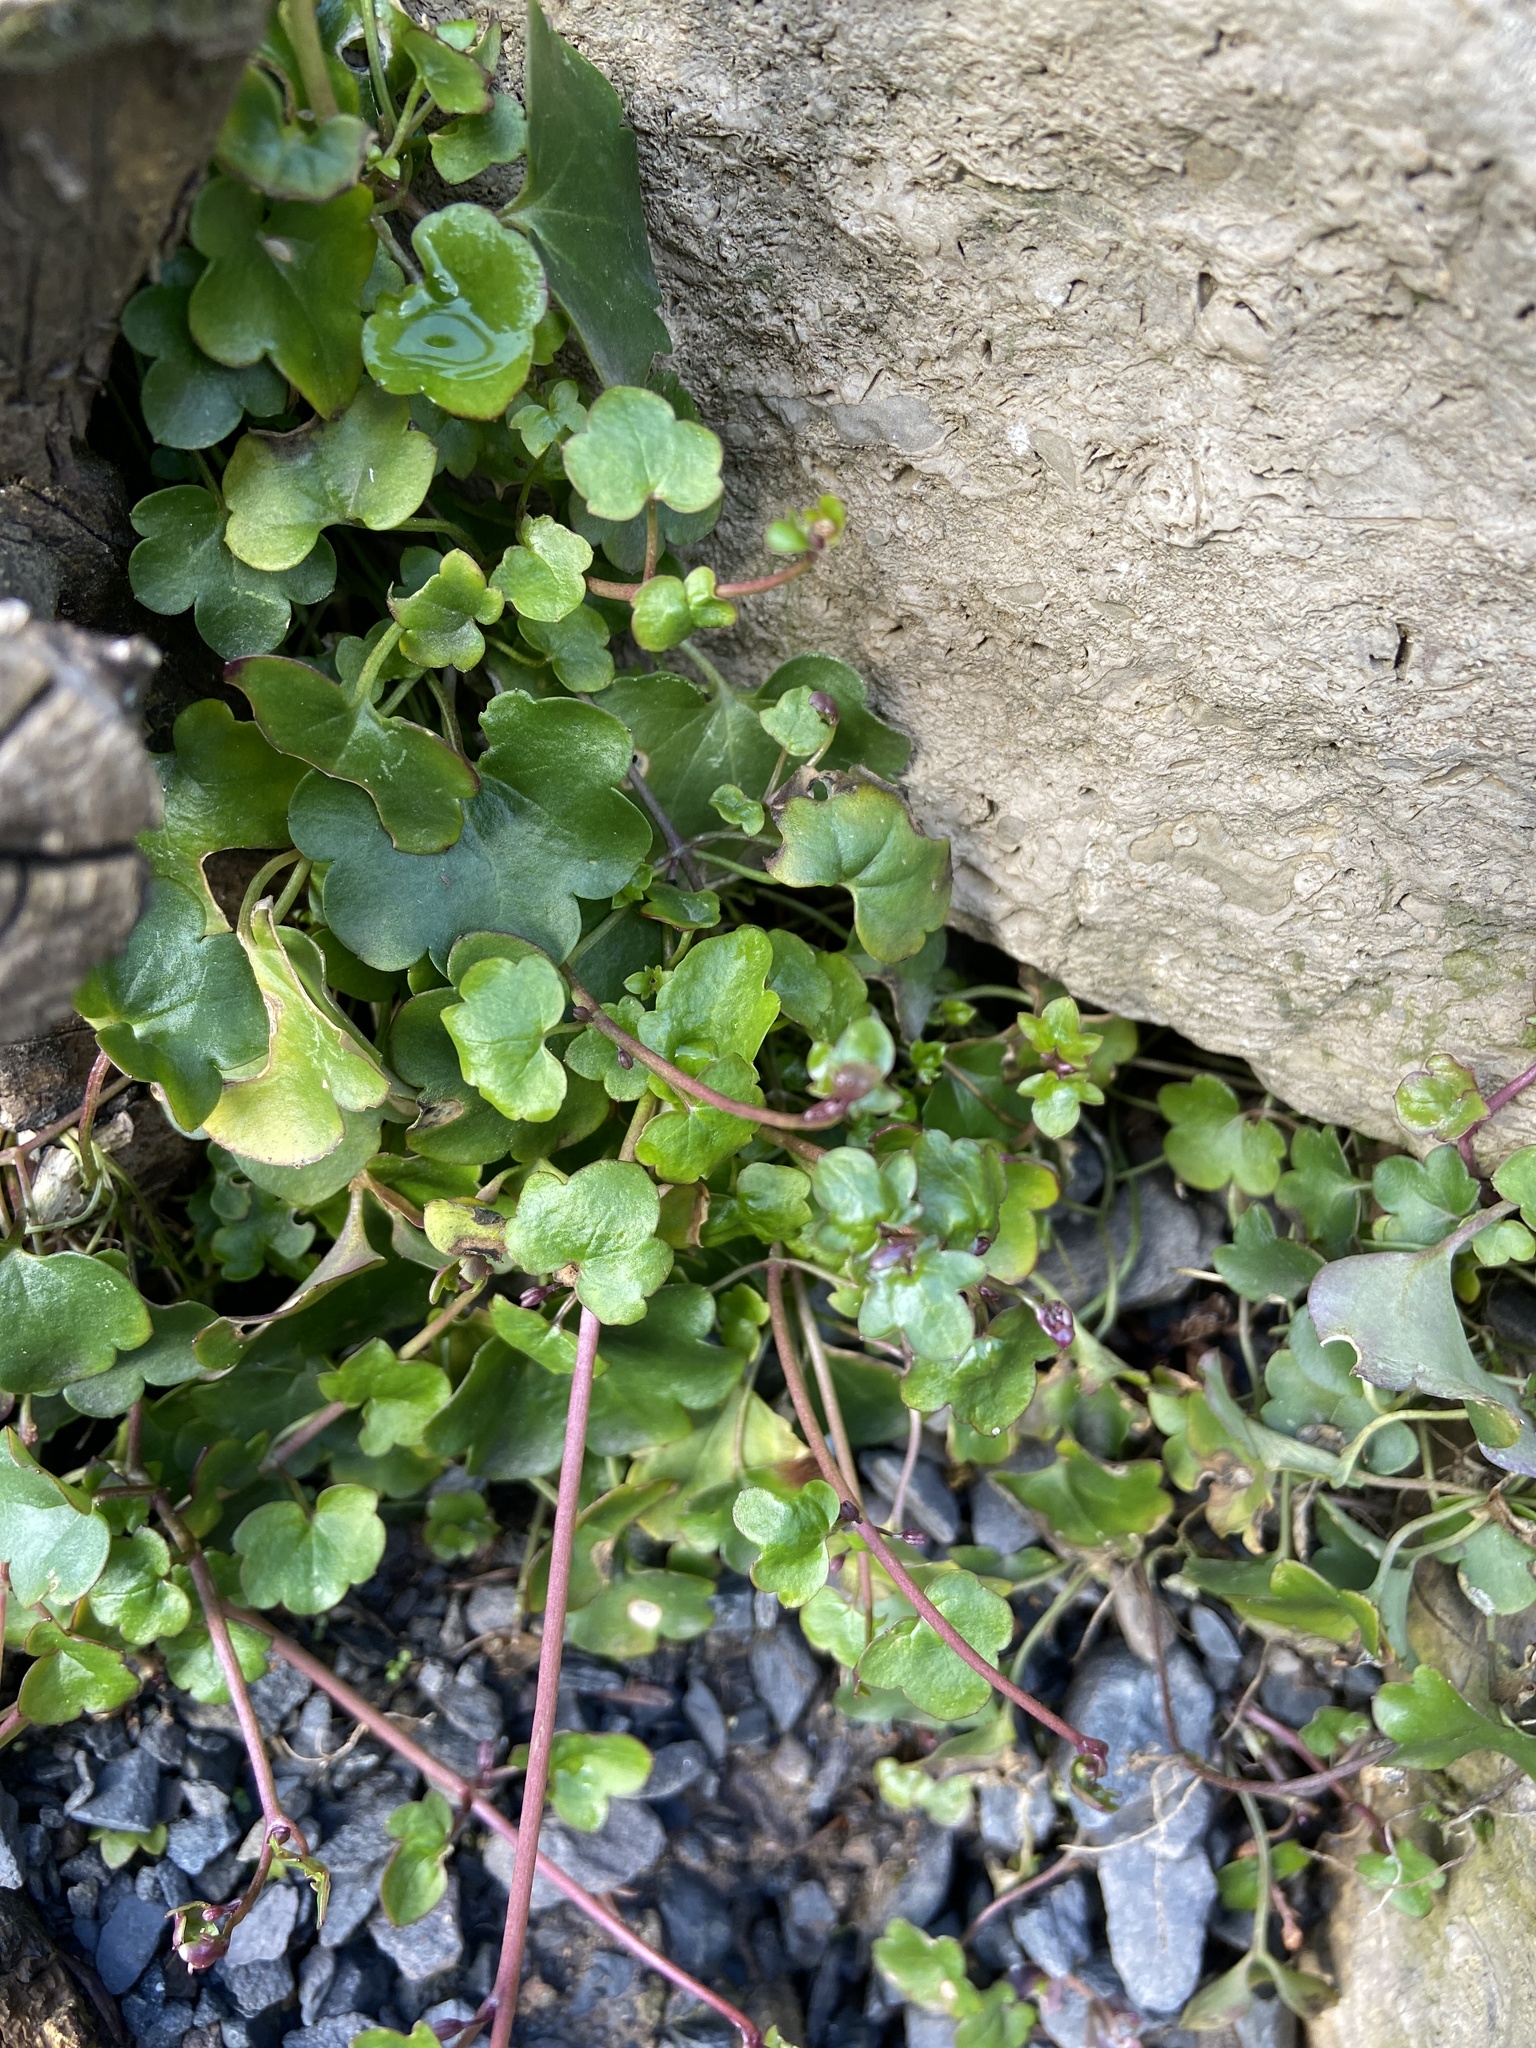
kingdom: Plantae
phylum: Tracheophyta
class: Magnoliopsida
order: Lamiales
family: Plantaginaceae
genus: Cymbalaria
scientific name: Cymbalaria muralis
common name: Ivy-leaved toadflax
